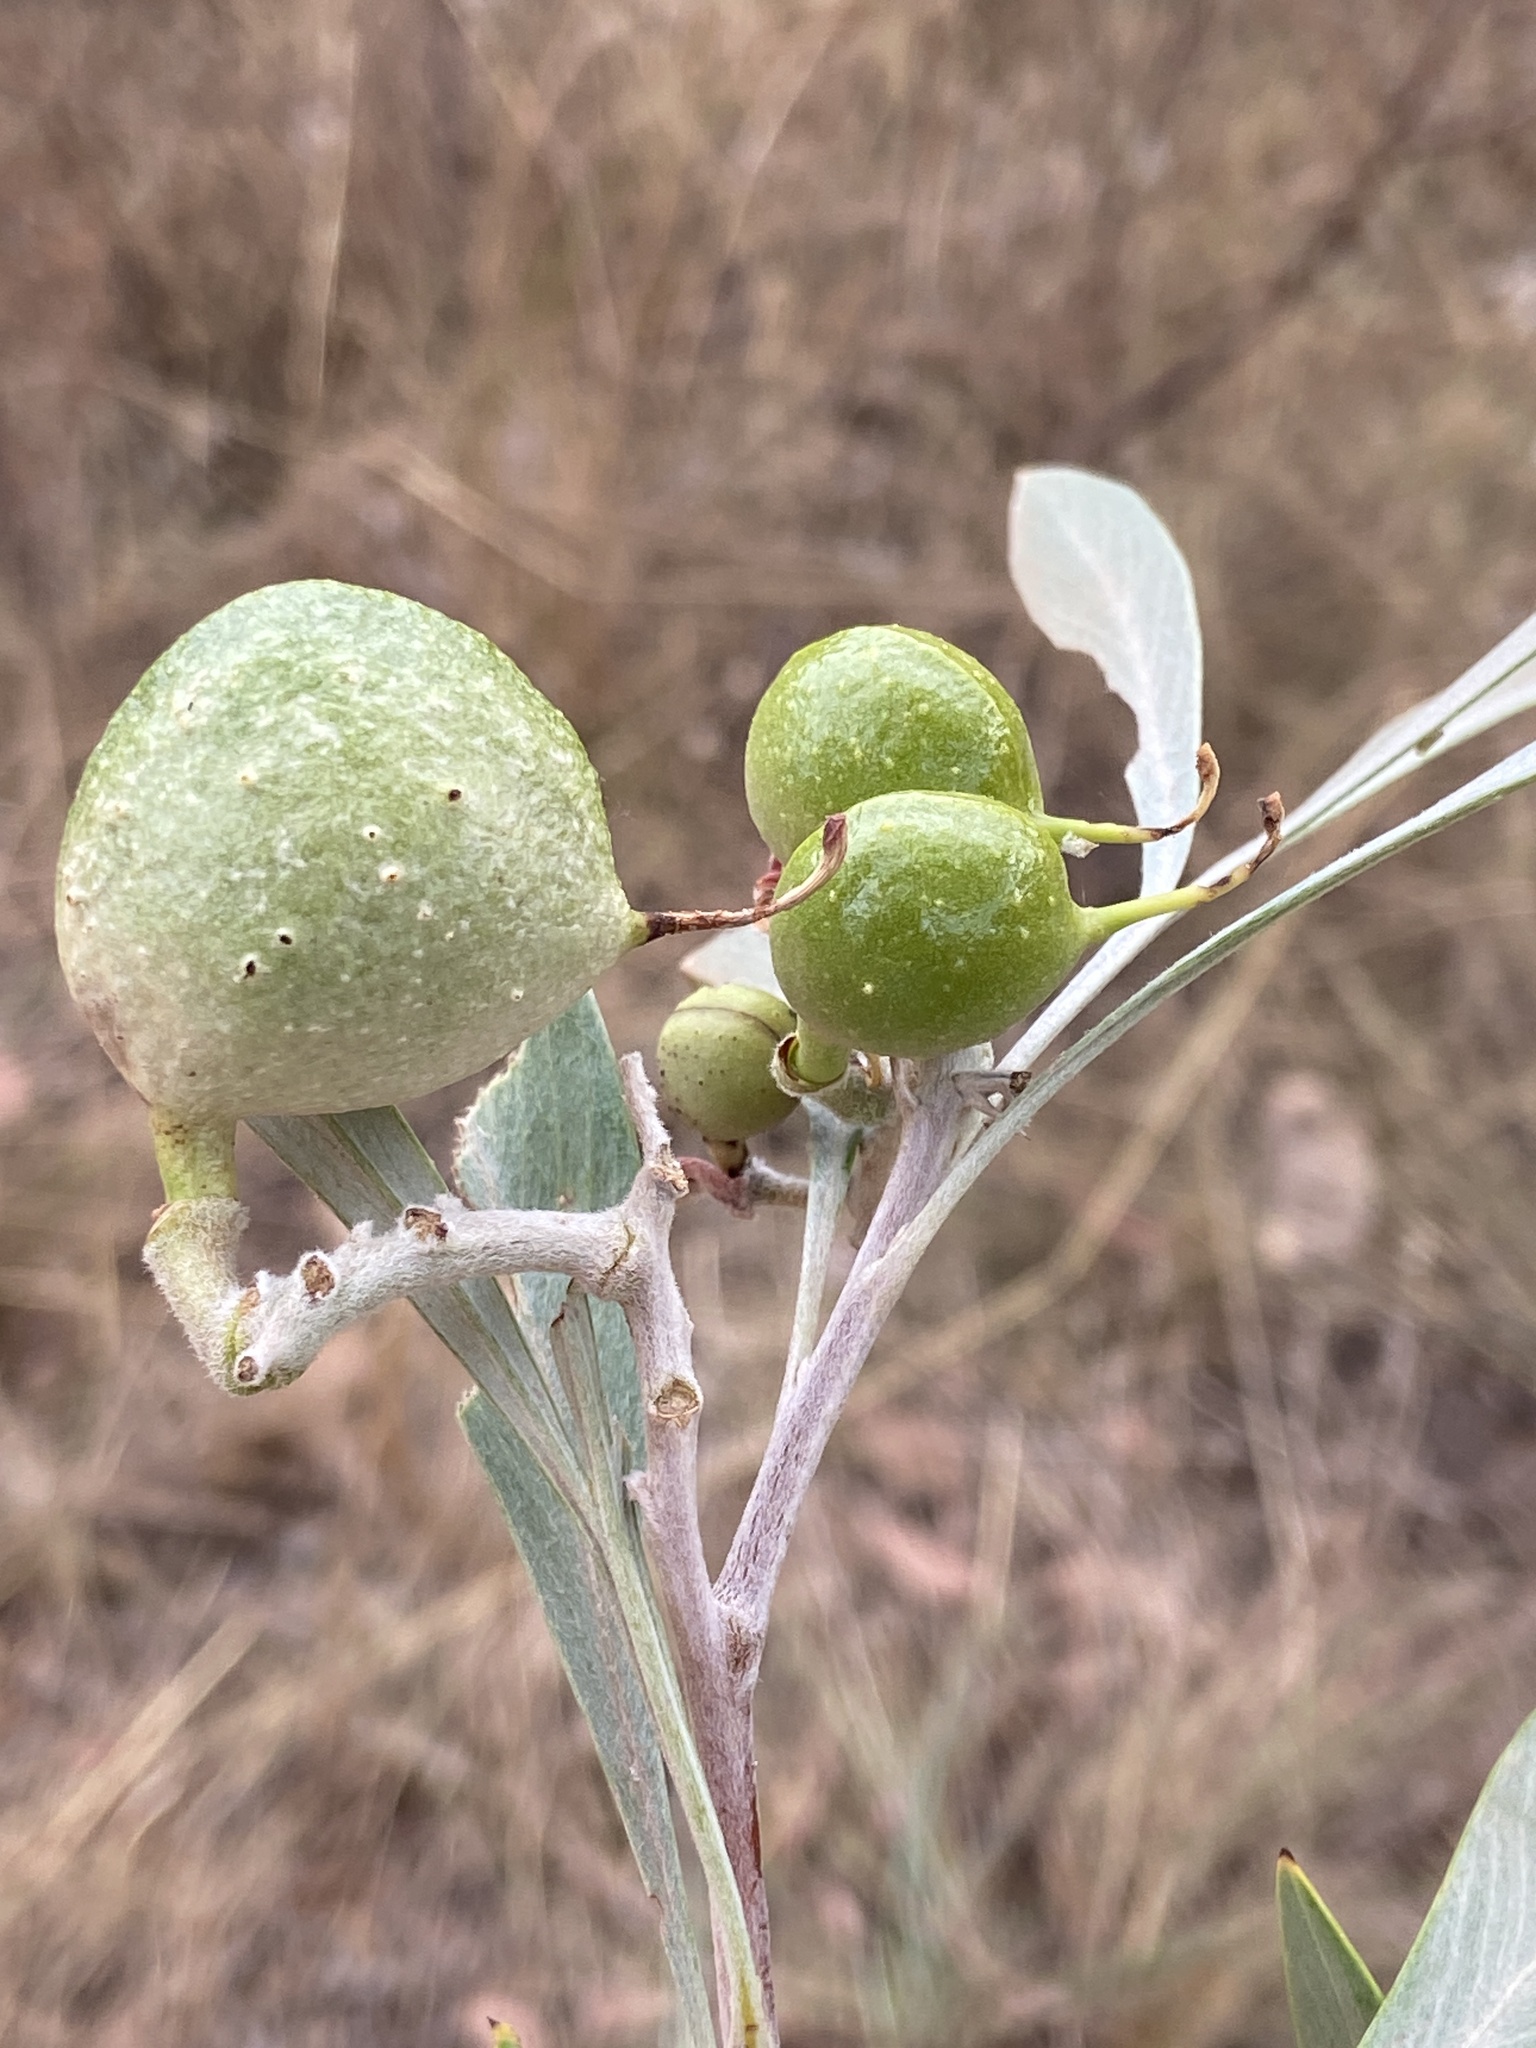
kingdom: Plantae
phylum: Tracheophyta
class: Magnoliopsida
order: Proteales
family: Proteaceae
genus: Grevillea
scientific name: Grevillea refracta
